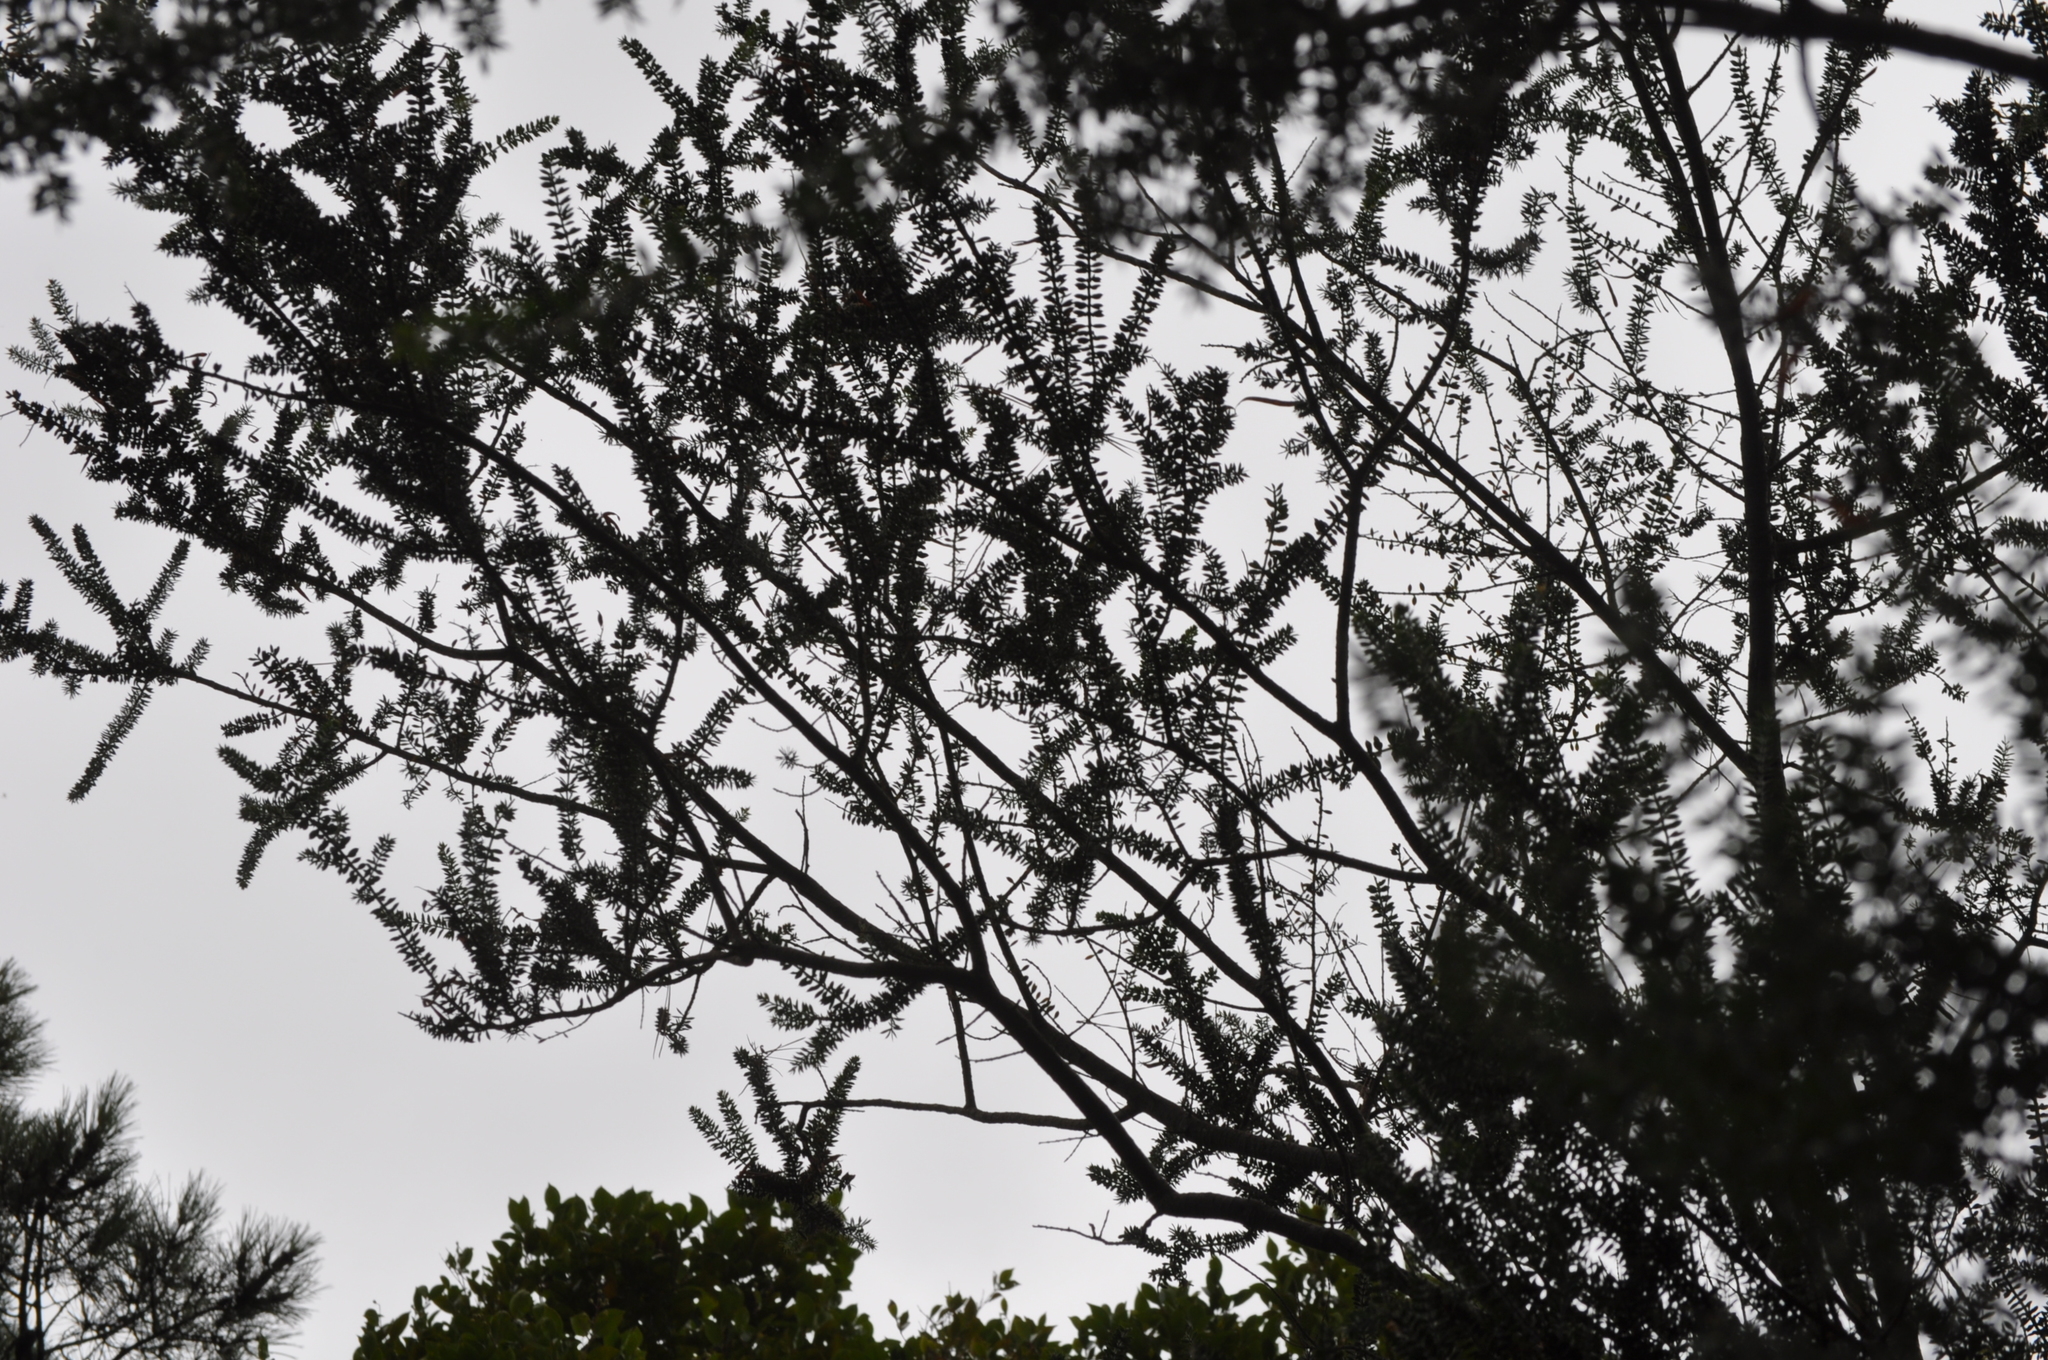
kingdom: Plantae
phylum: Tracheophyta
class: Magnoliopsida
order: Fabales
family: Fabaceae
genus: Acacia
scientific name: Acacia verticillata
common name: Prickly moses
